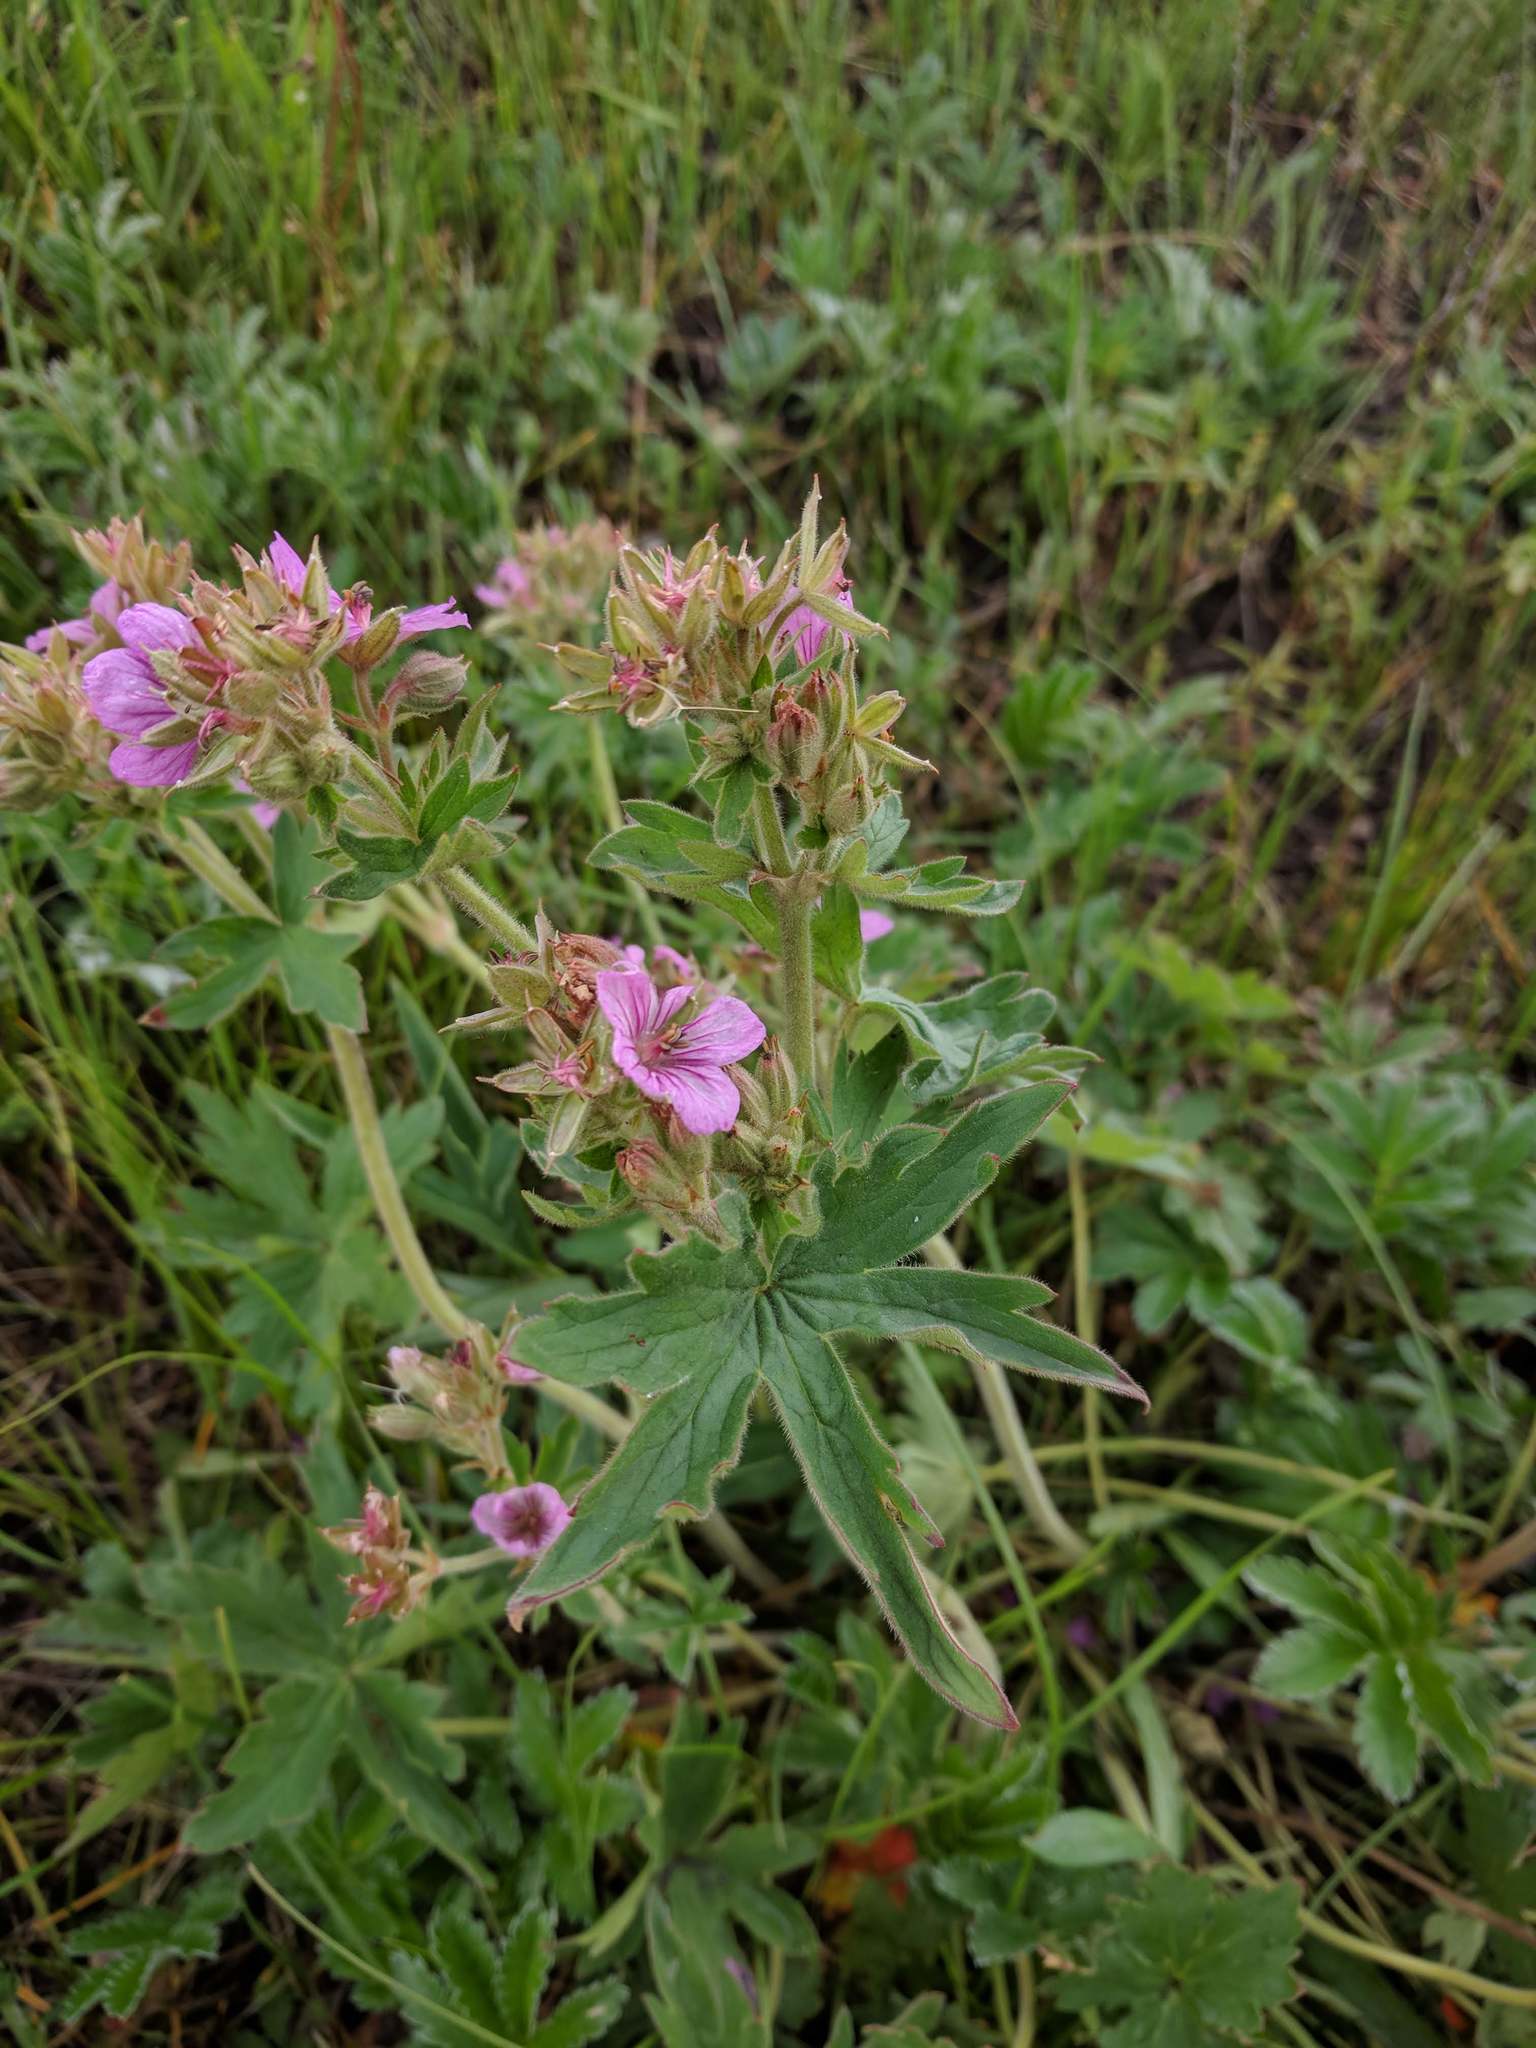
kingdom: Plantae
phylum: Tracheophyta
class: Magnoliopsida
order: Geraniales
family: Geraniaceae
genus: Geranium
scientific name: Geranium viscosissimum
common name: Purple geranium
